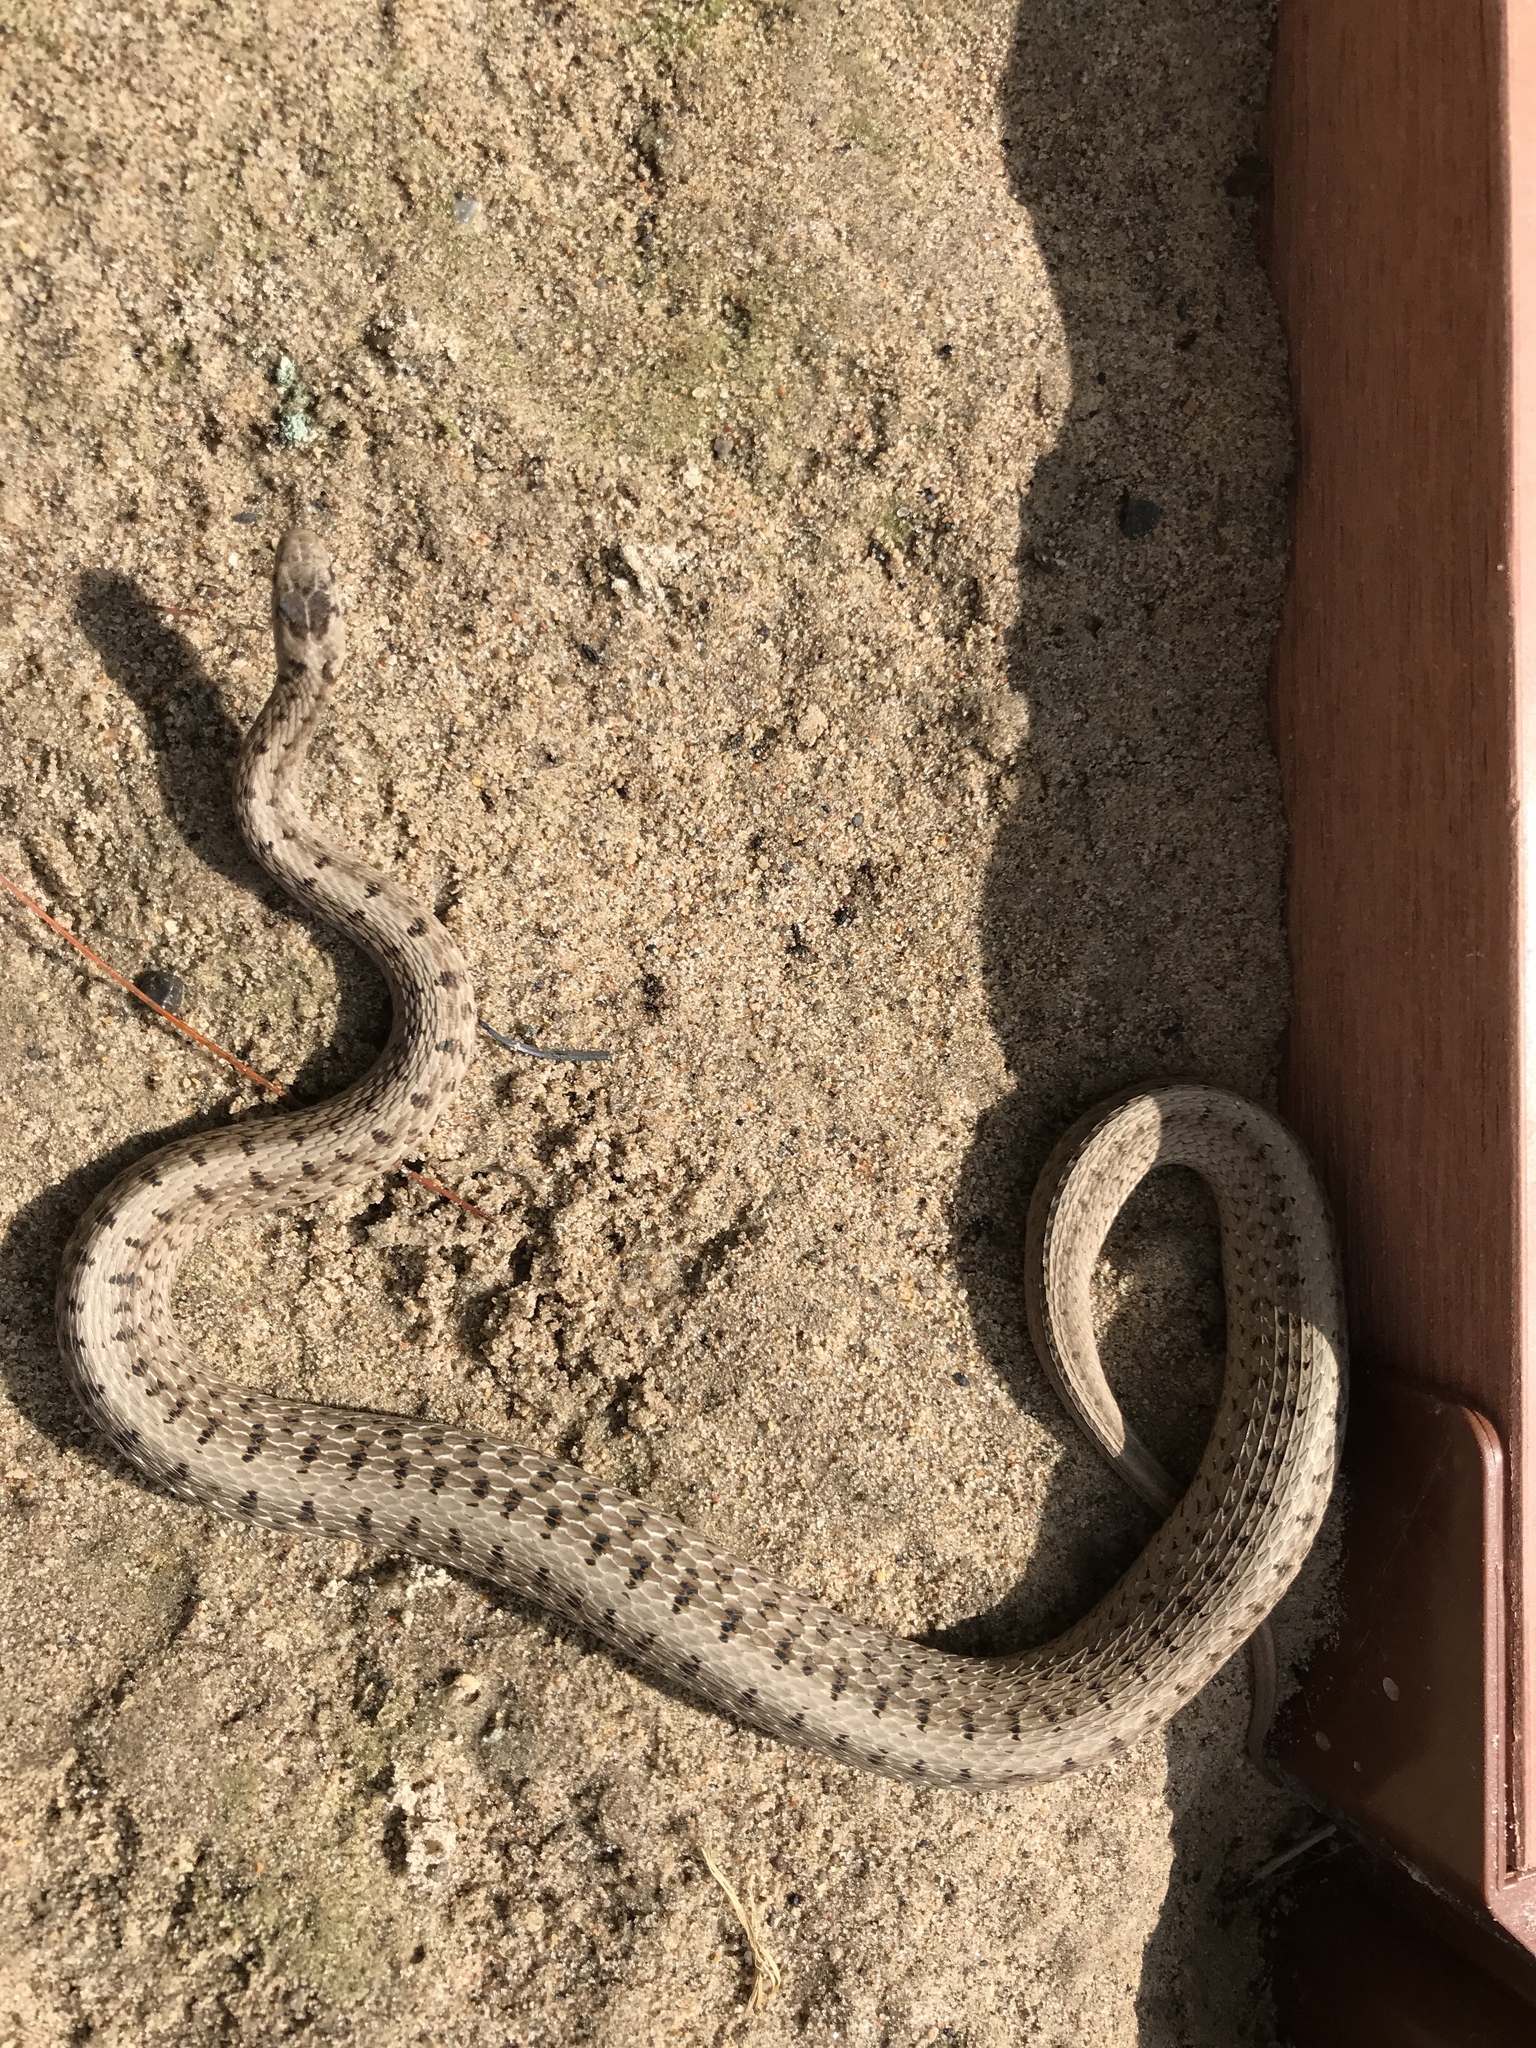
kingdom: Animalia
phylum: Chordata
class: Squamata
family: Colubridae
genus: Storeria
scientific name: Storeria dekayi
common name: (dekay’s) brown snake
